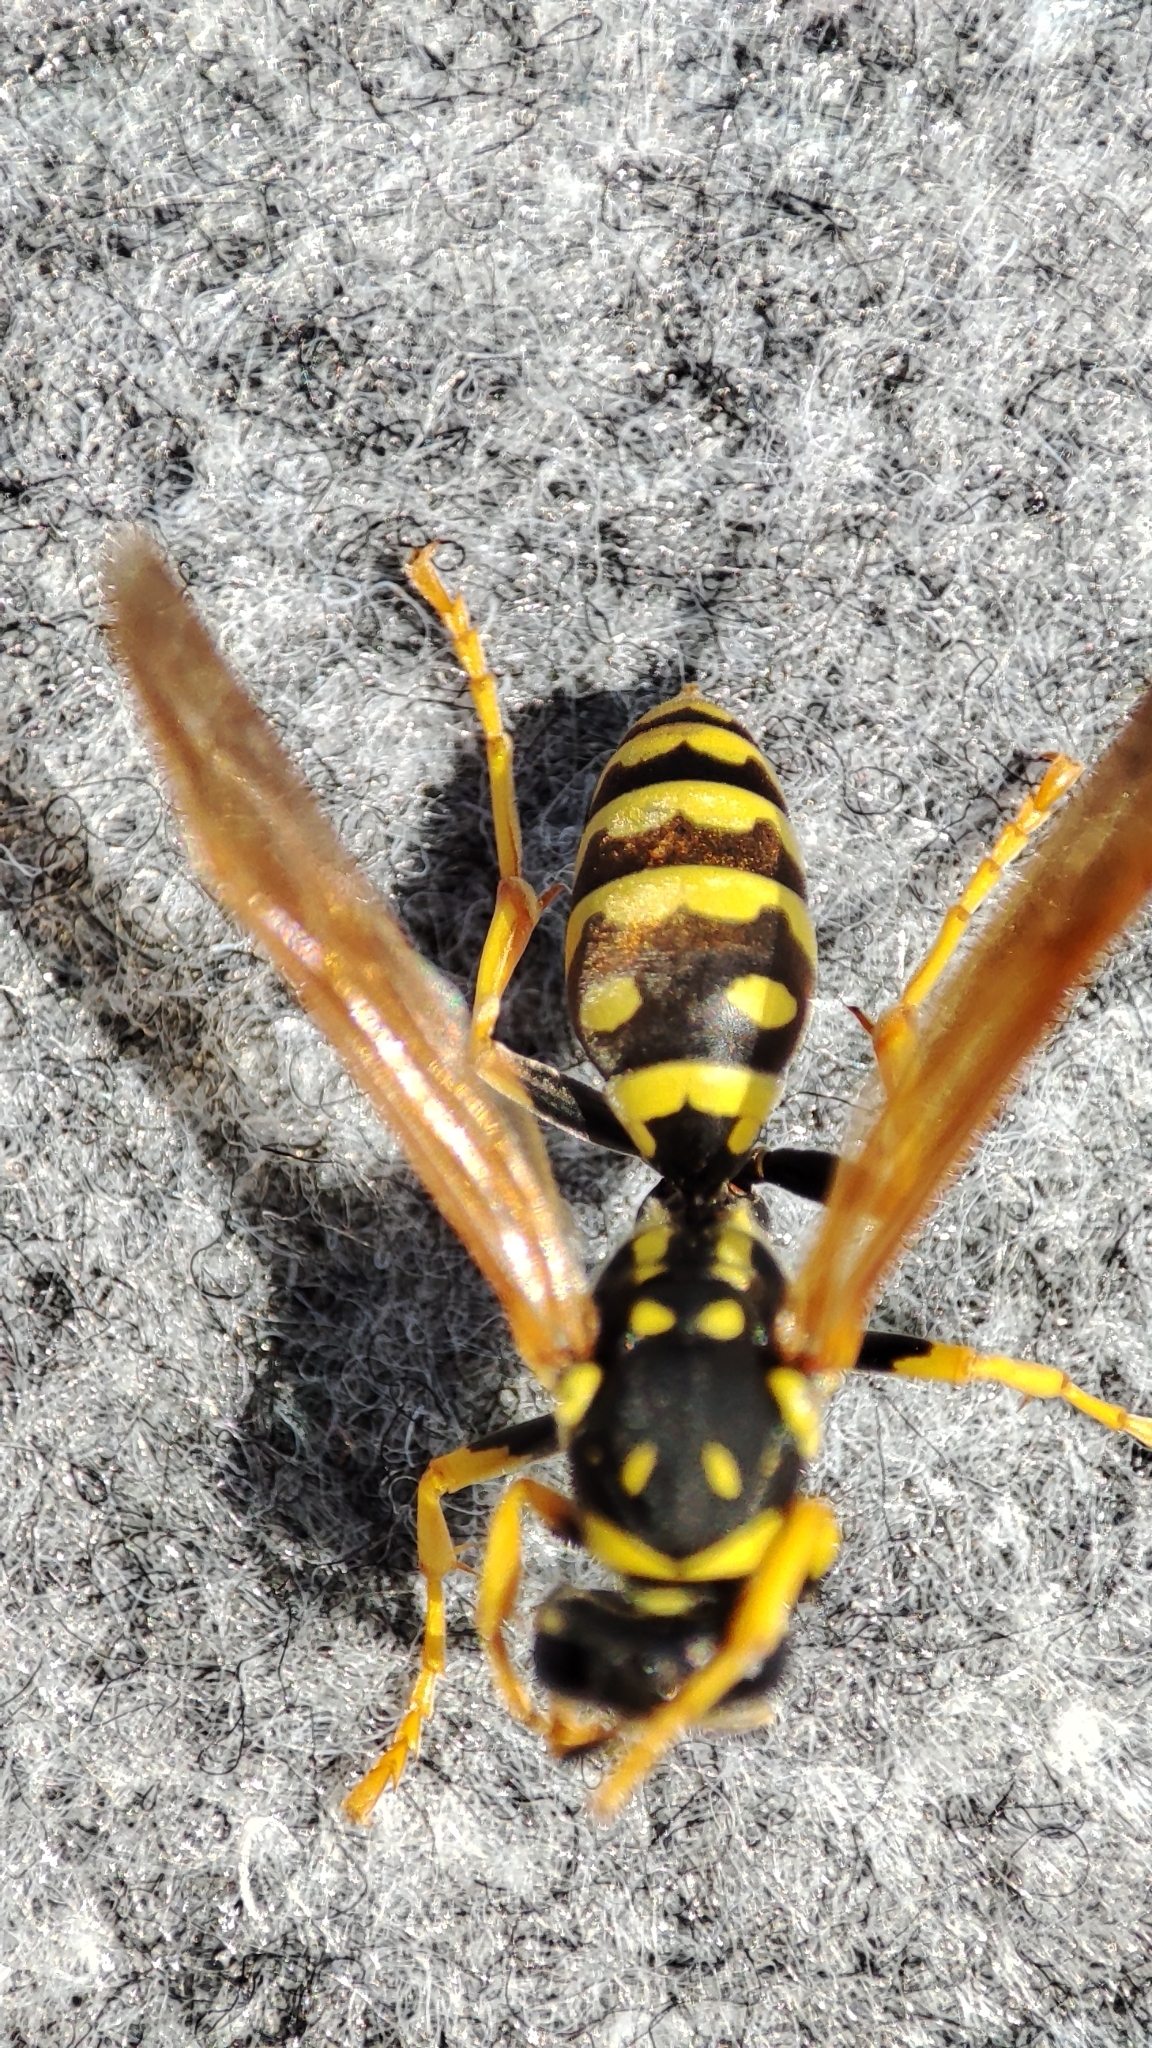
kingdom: Animalia
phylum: Arthropoda
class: Insecta
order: Hymenoptera
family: Eumenidae
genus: Polistes
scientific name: Polistes gallicus
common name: Paper wasp
